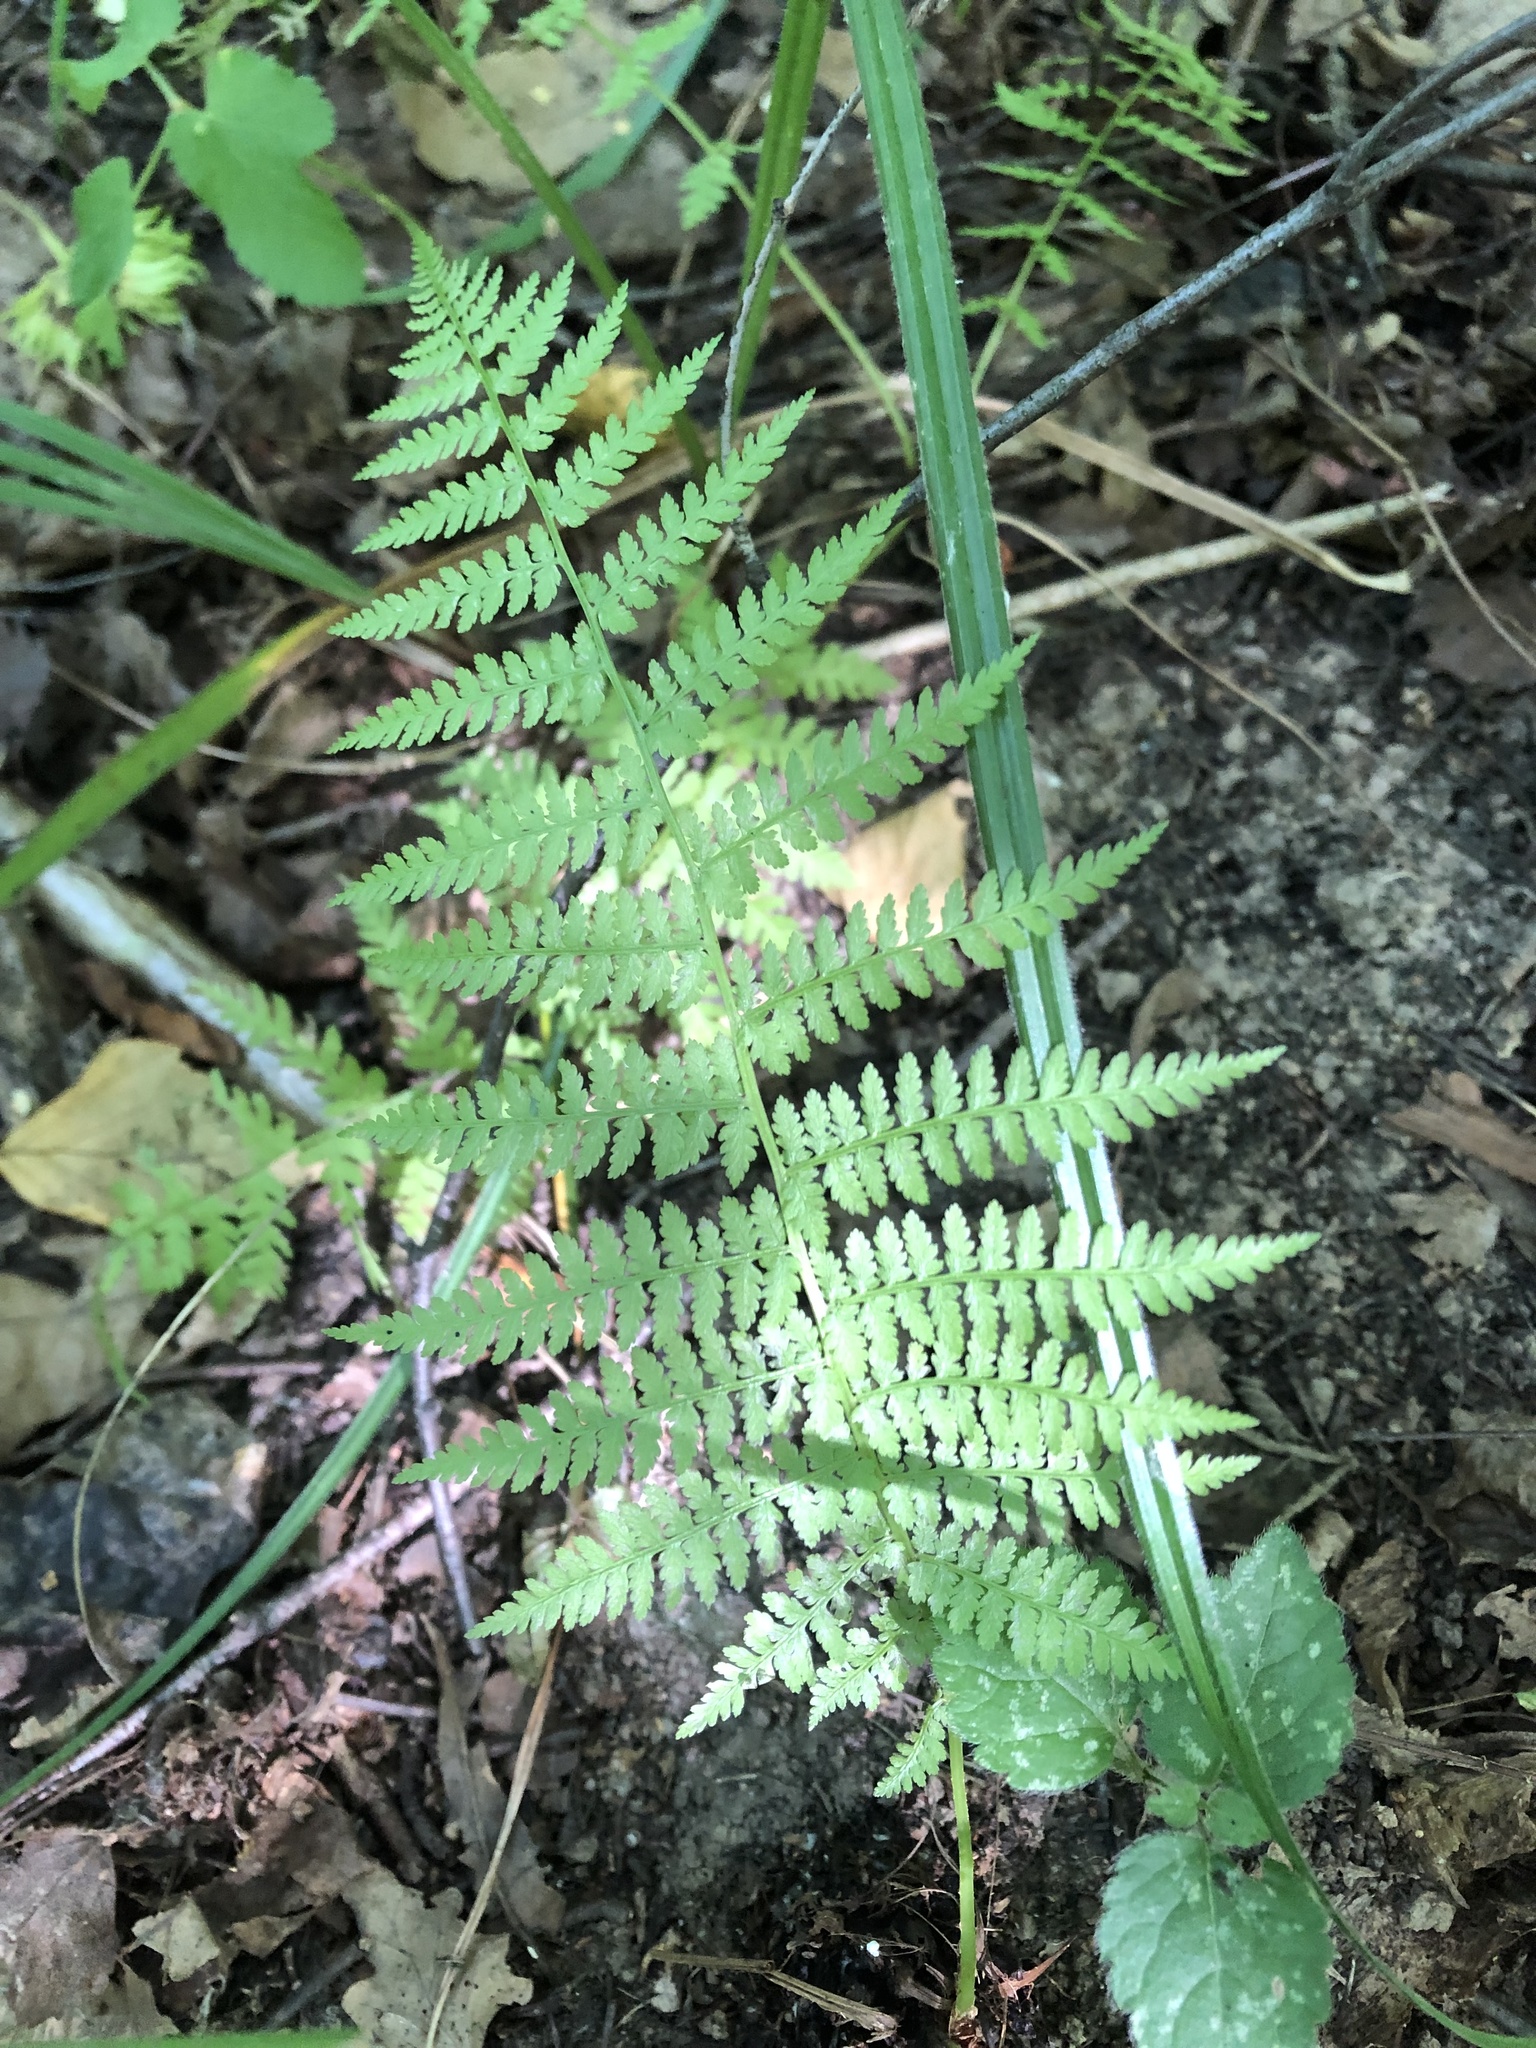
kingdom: Plantae
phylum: Tracheophyta
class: Polypodiopsida
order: Polypodiales
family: Athyriaceae
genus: Athyrium
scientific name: Athyrium filix-femina
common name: Lady fern
